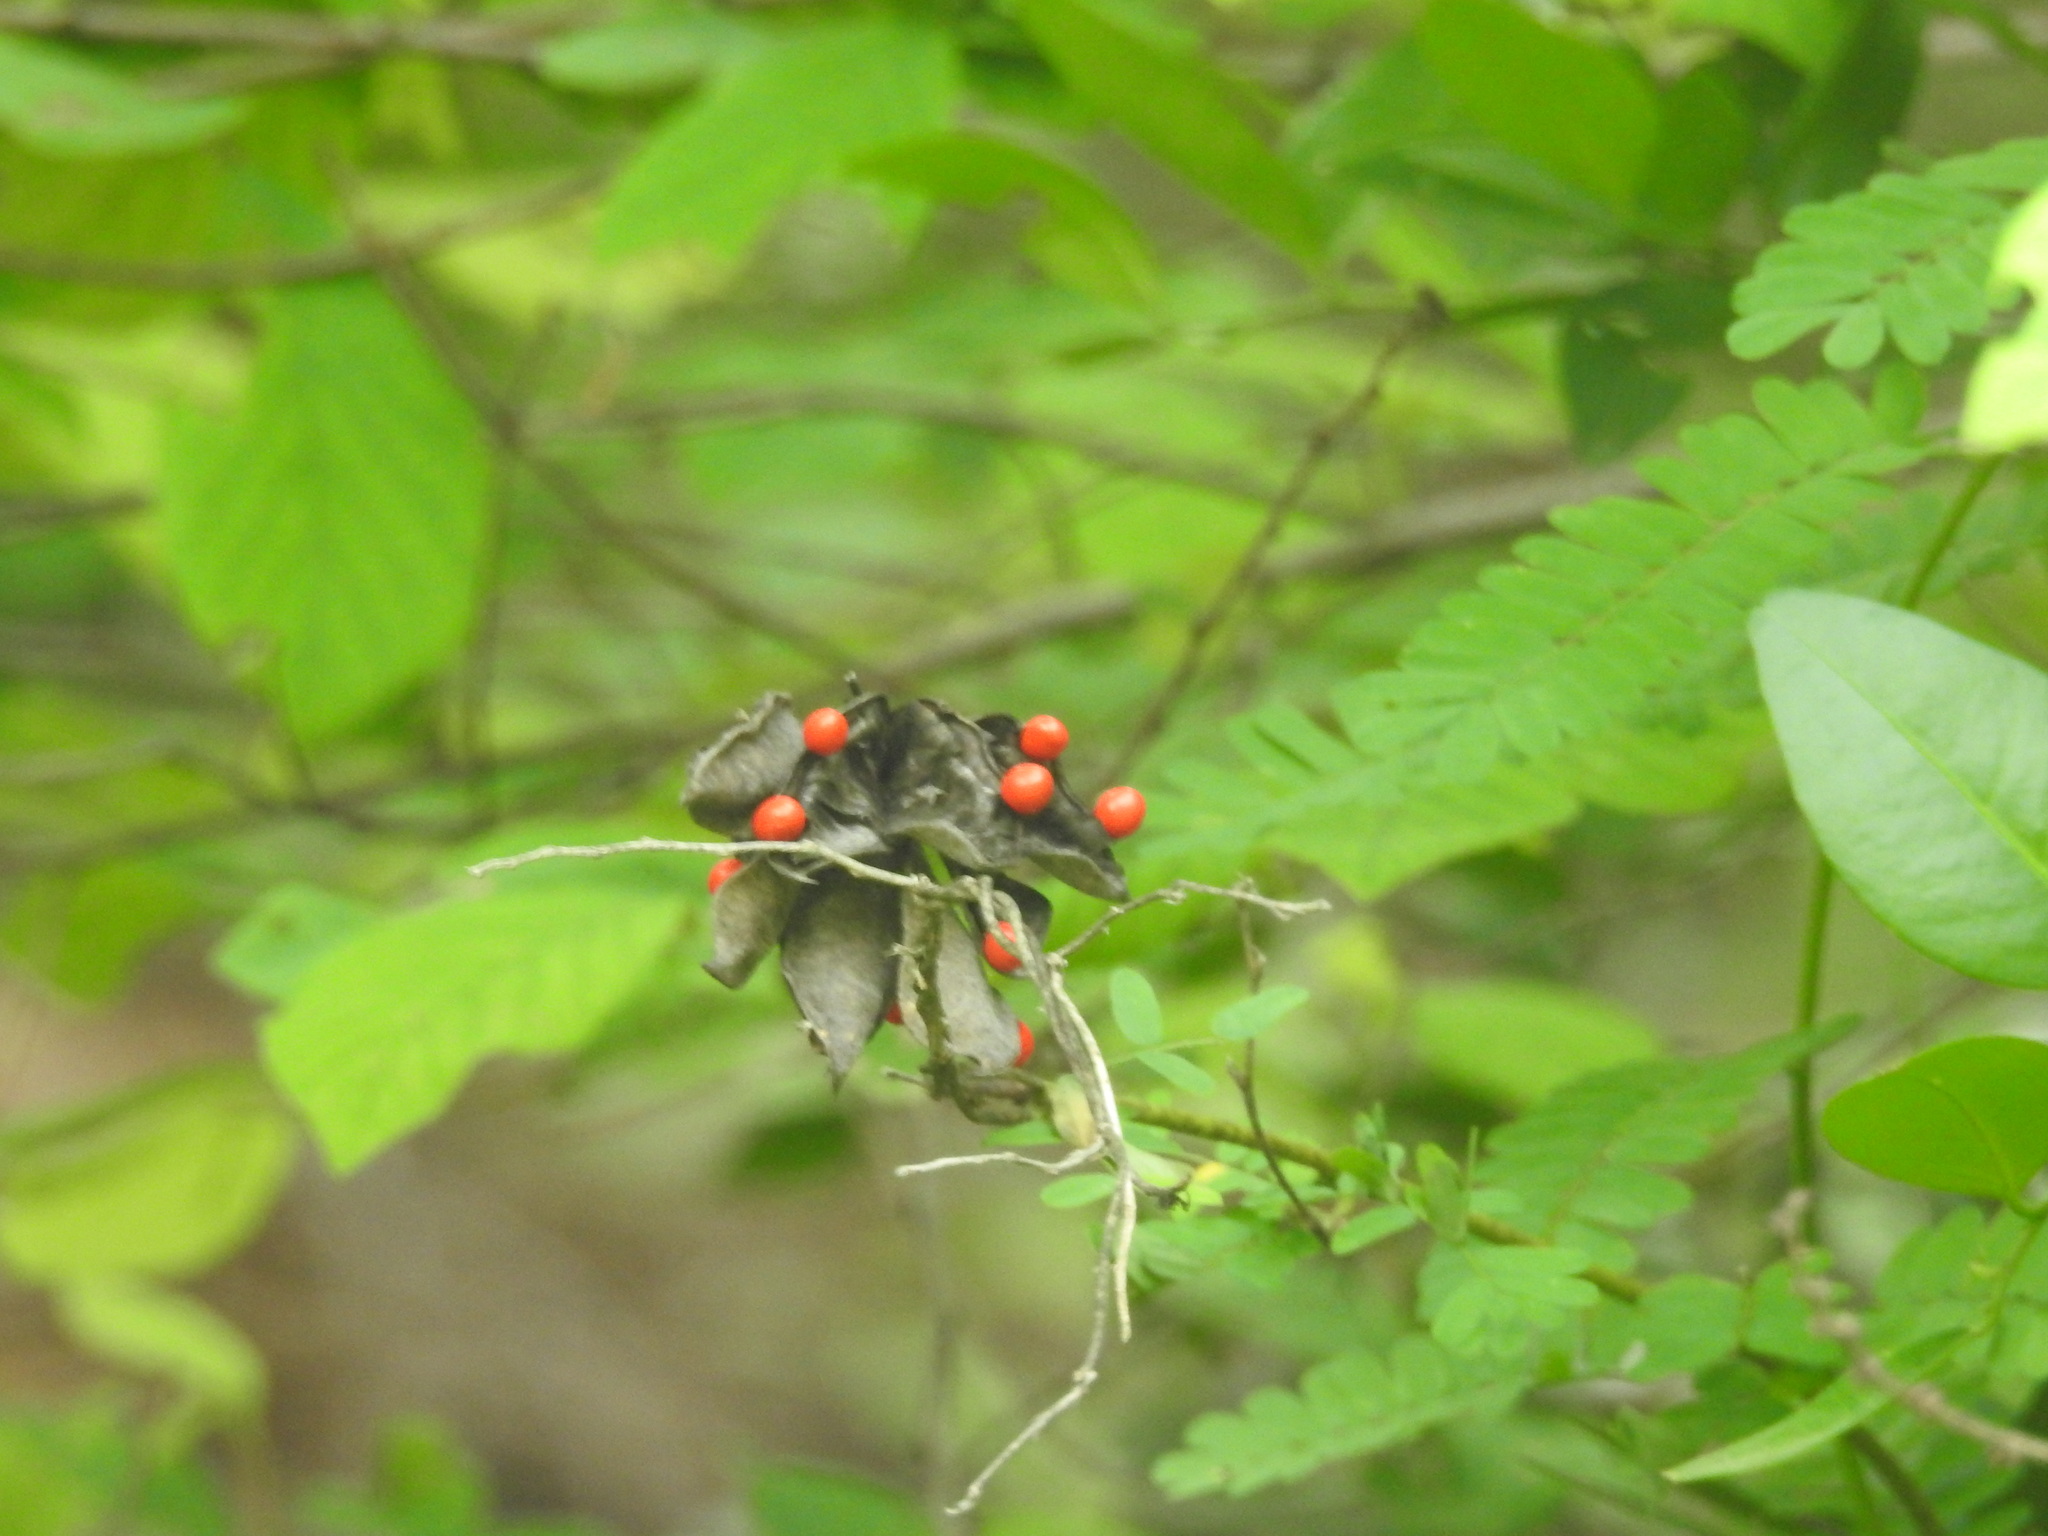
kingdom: Plantae
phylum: Tracheophyta
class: Magnoliopsida
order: Fabales
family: Fabaceae
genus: Abrus
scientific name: Abrus precatorius
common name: Rosarypea
